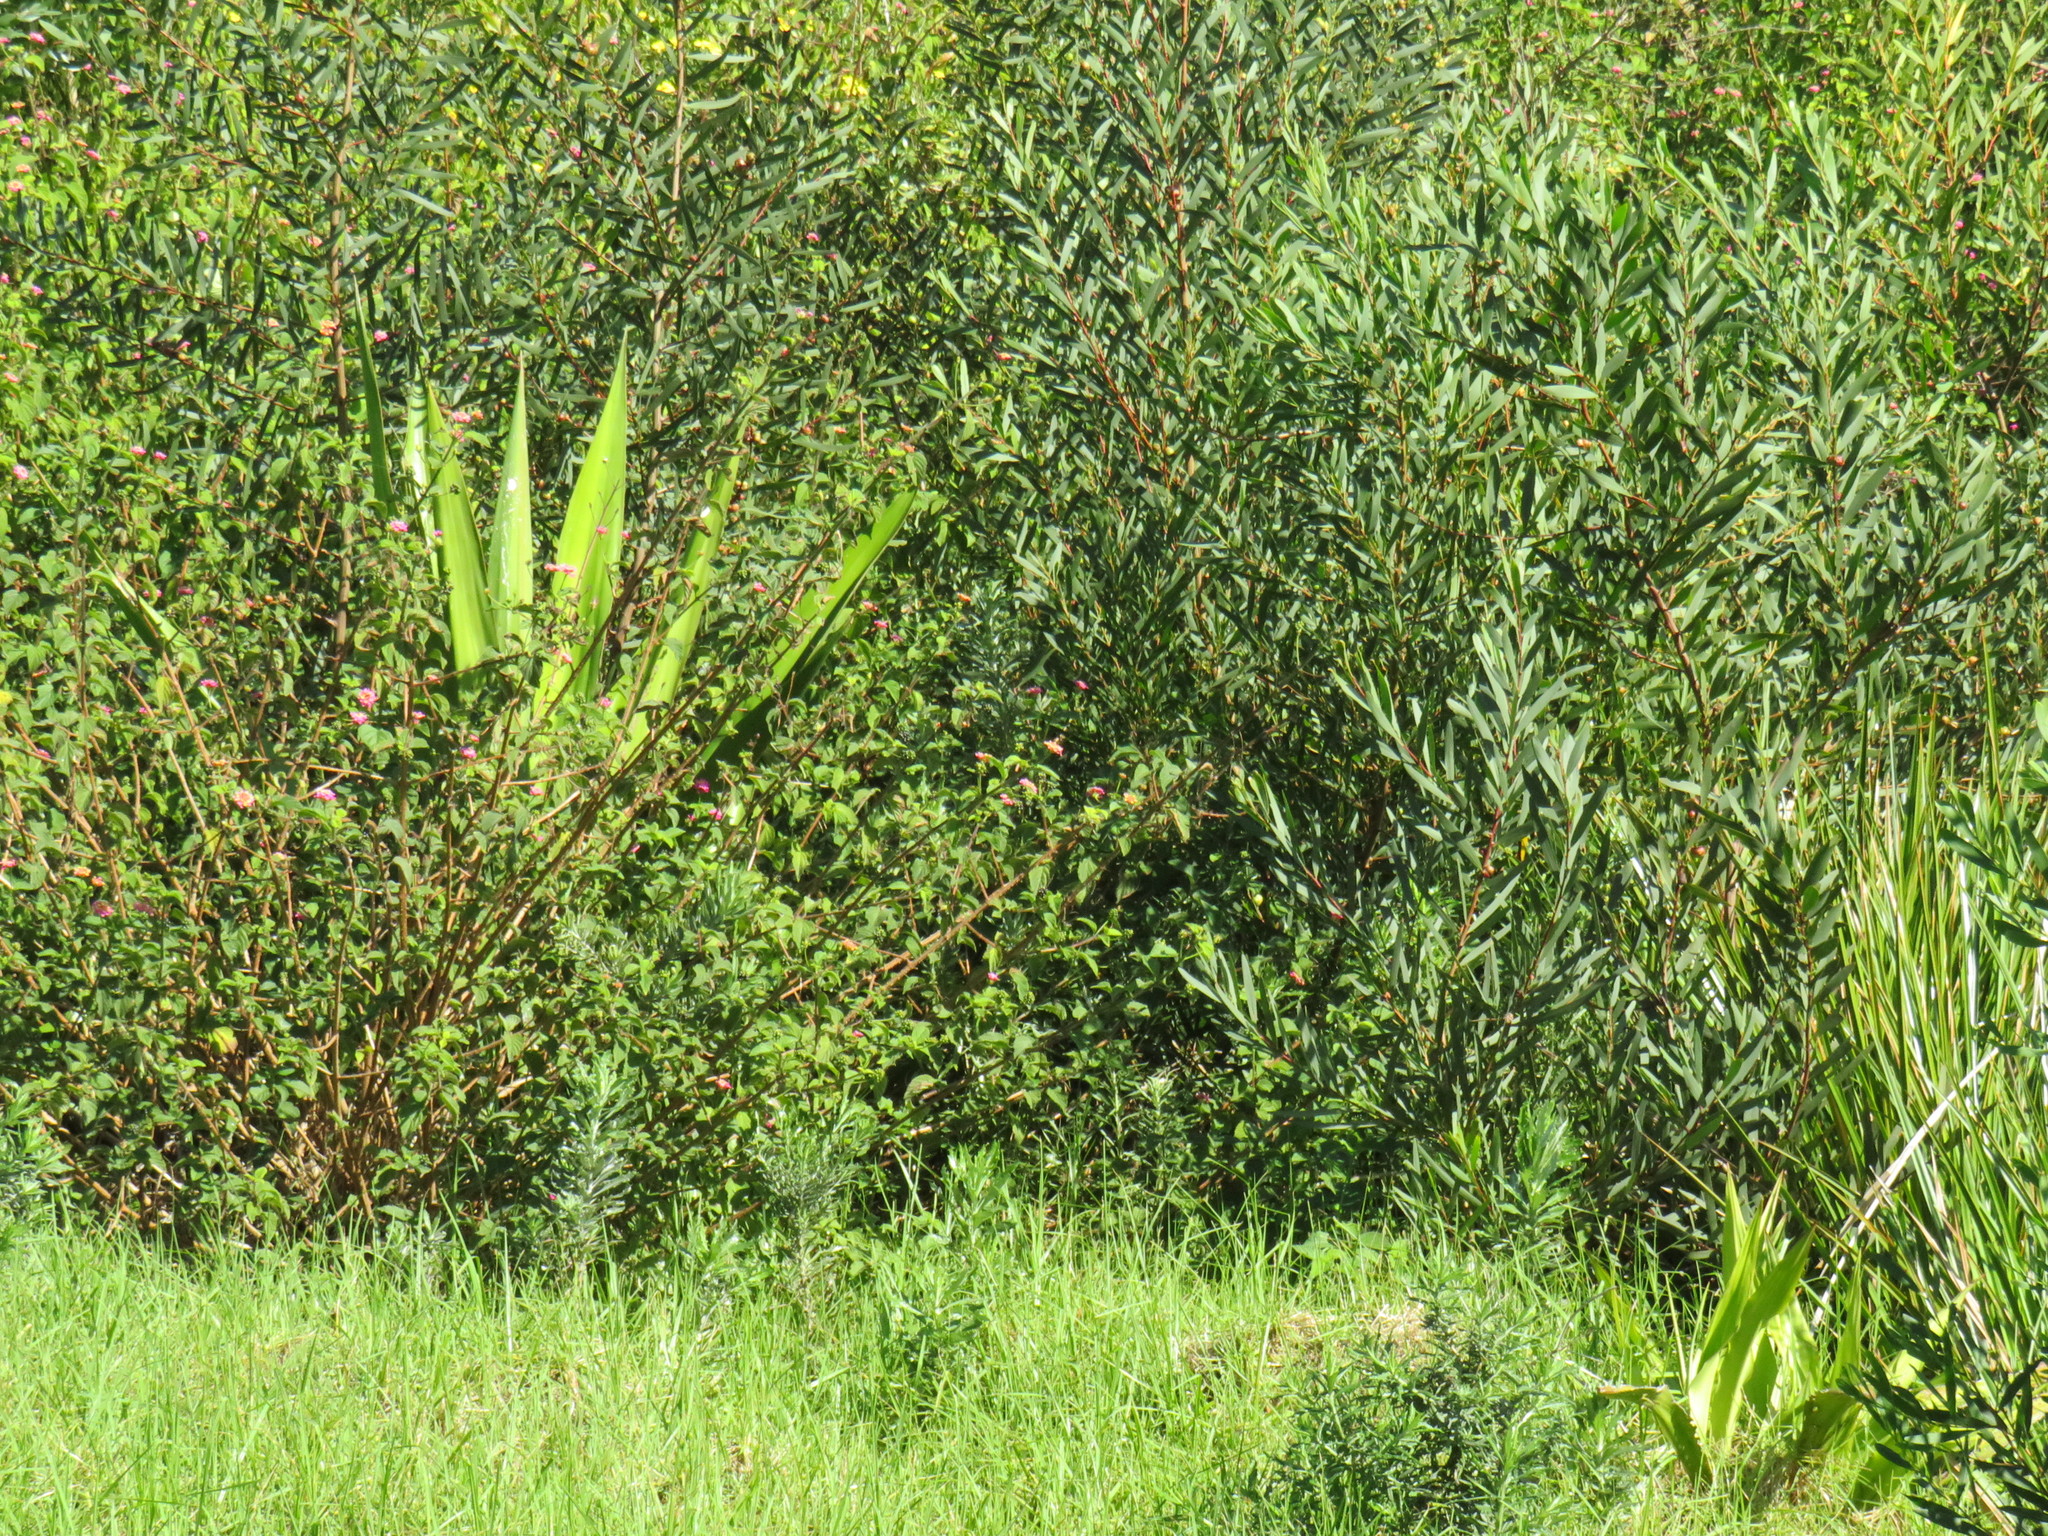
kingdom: Plantae
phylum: Tracheophyta
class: Liliopsida
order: Asparagales
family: Asparagaceae
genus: Furcraea
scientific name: Furcraea foetida
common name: Mauritius hemp
